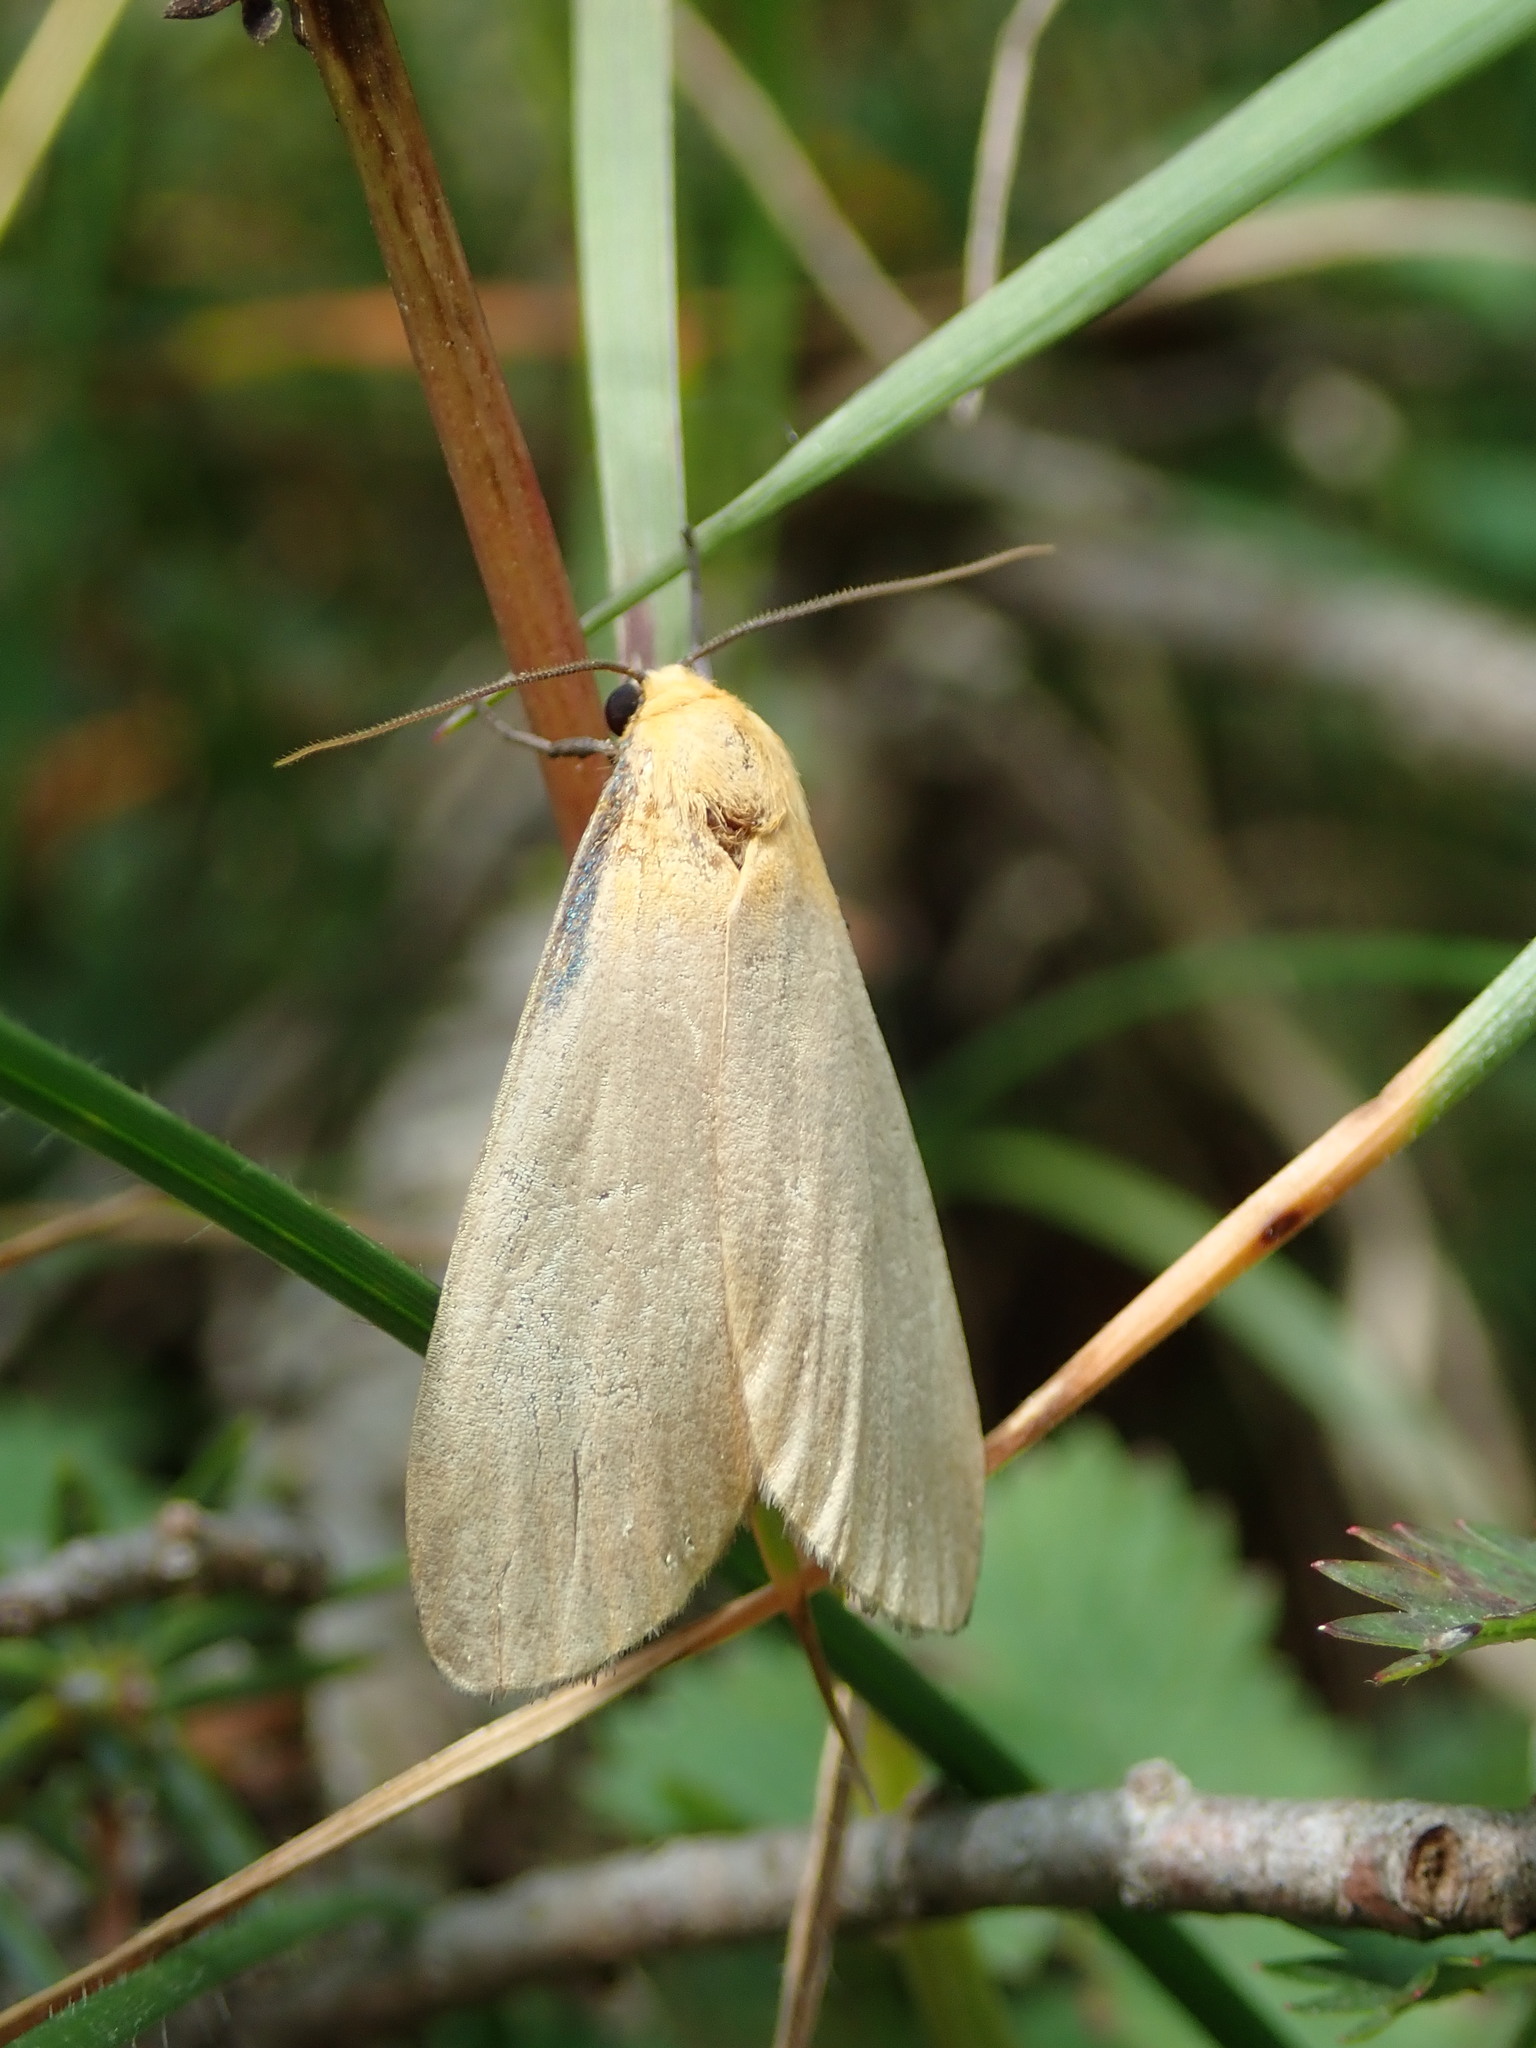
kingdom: Animalia
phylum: Arthropoda
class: Insecta
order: Lepidoptera
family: Erebidae
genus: Lithosia
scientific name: Lithosia quadra
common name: Four-spotted footman
